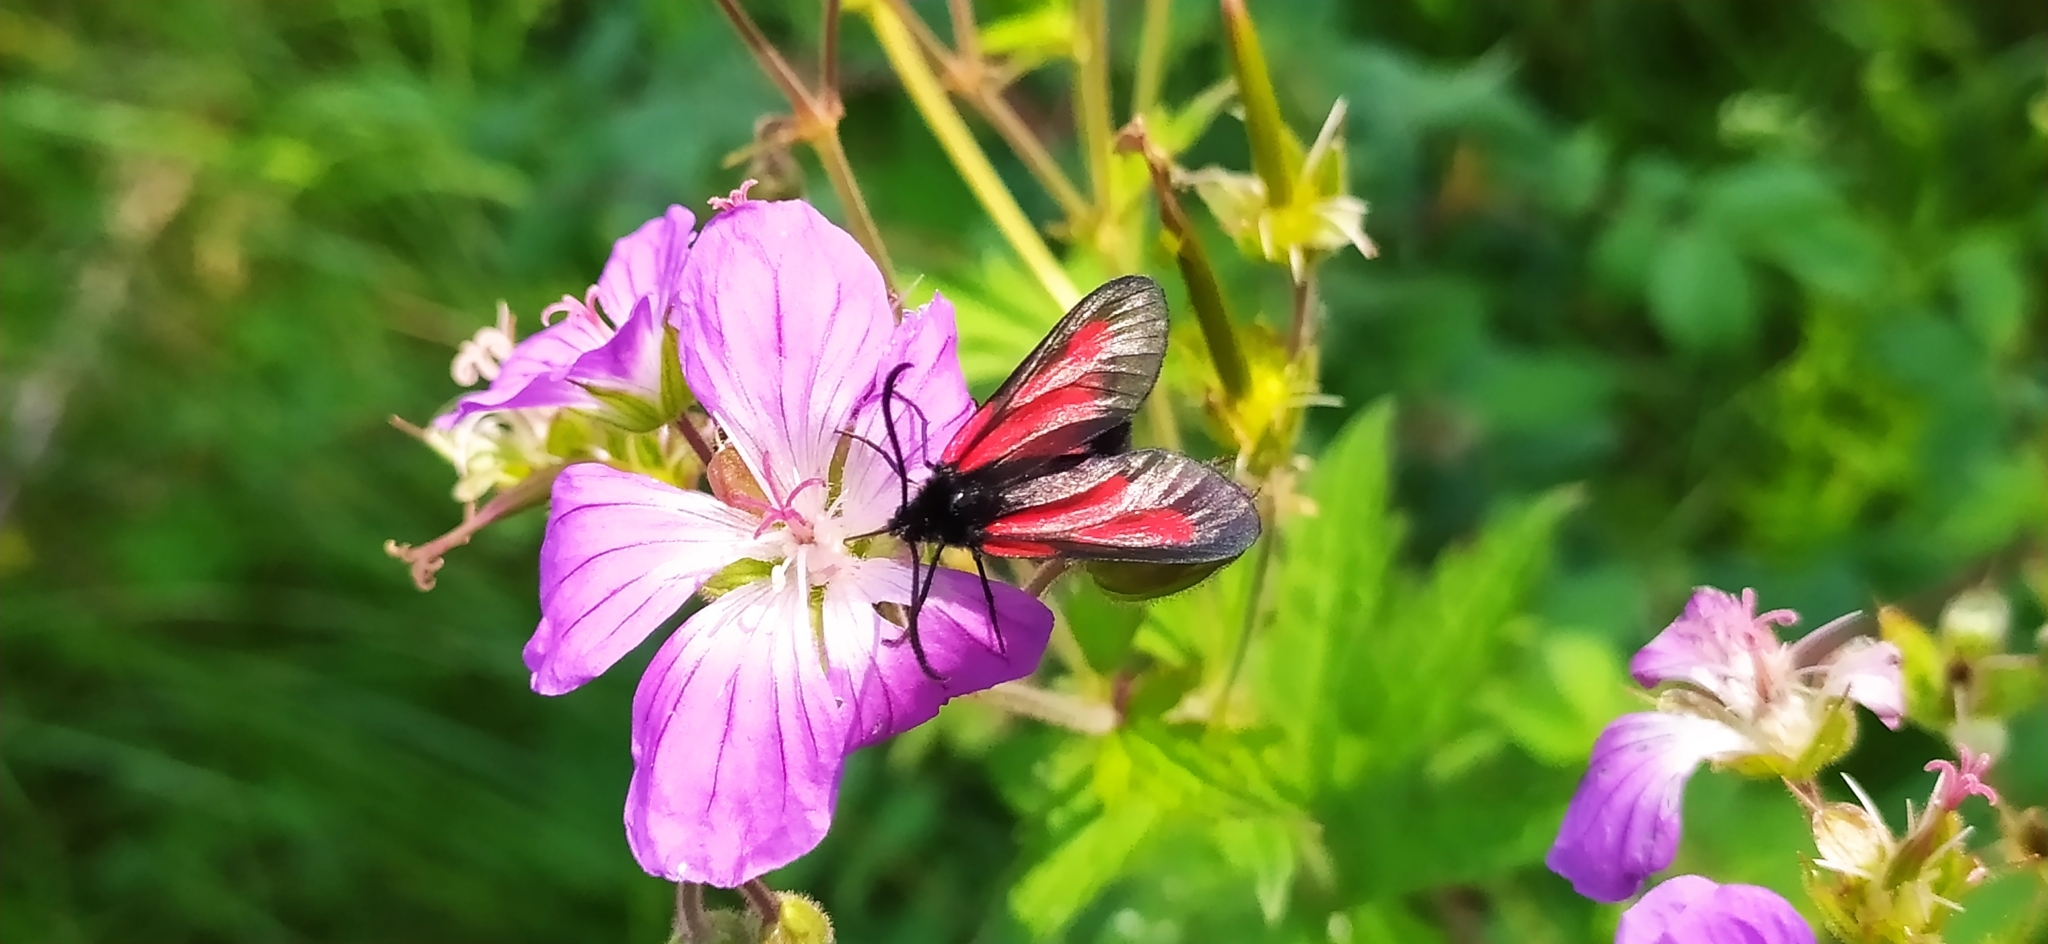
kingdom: Animalia
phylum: Arthropoda
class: Insecta
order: Lepidoptera
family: Zygaenidae
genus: Zygaena
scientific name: Zygaena osterodensis
